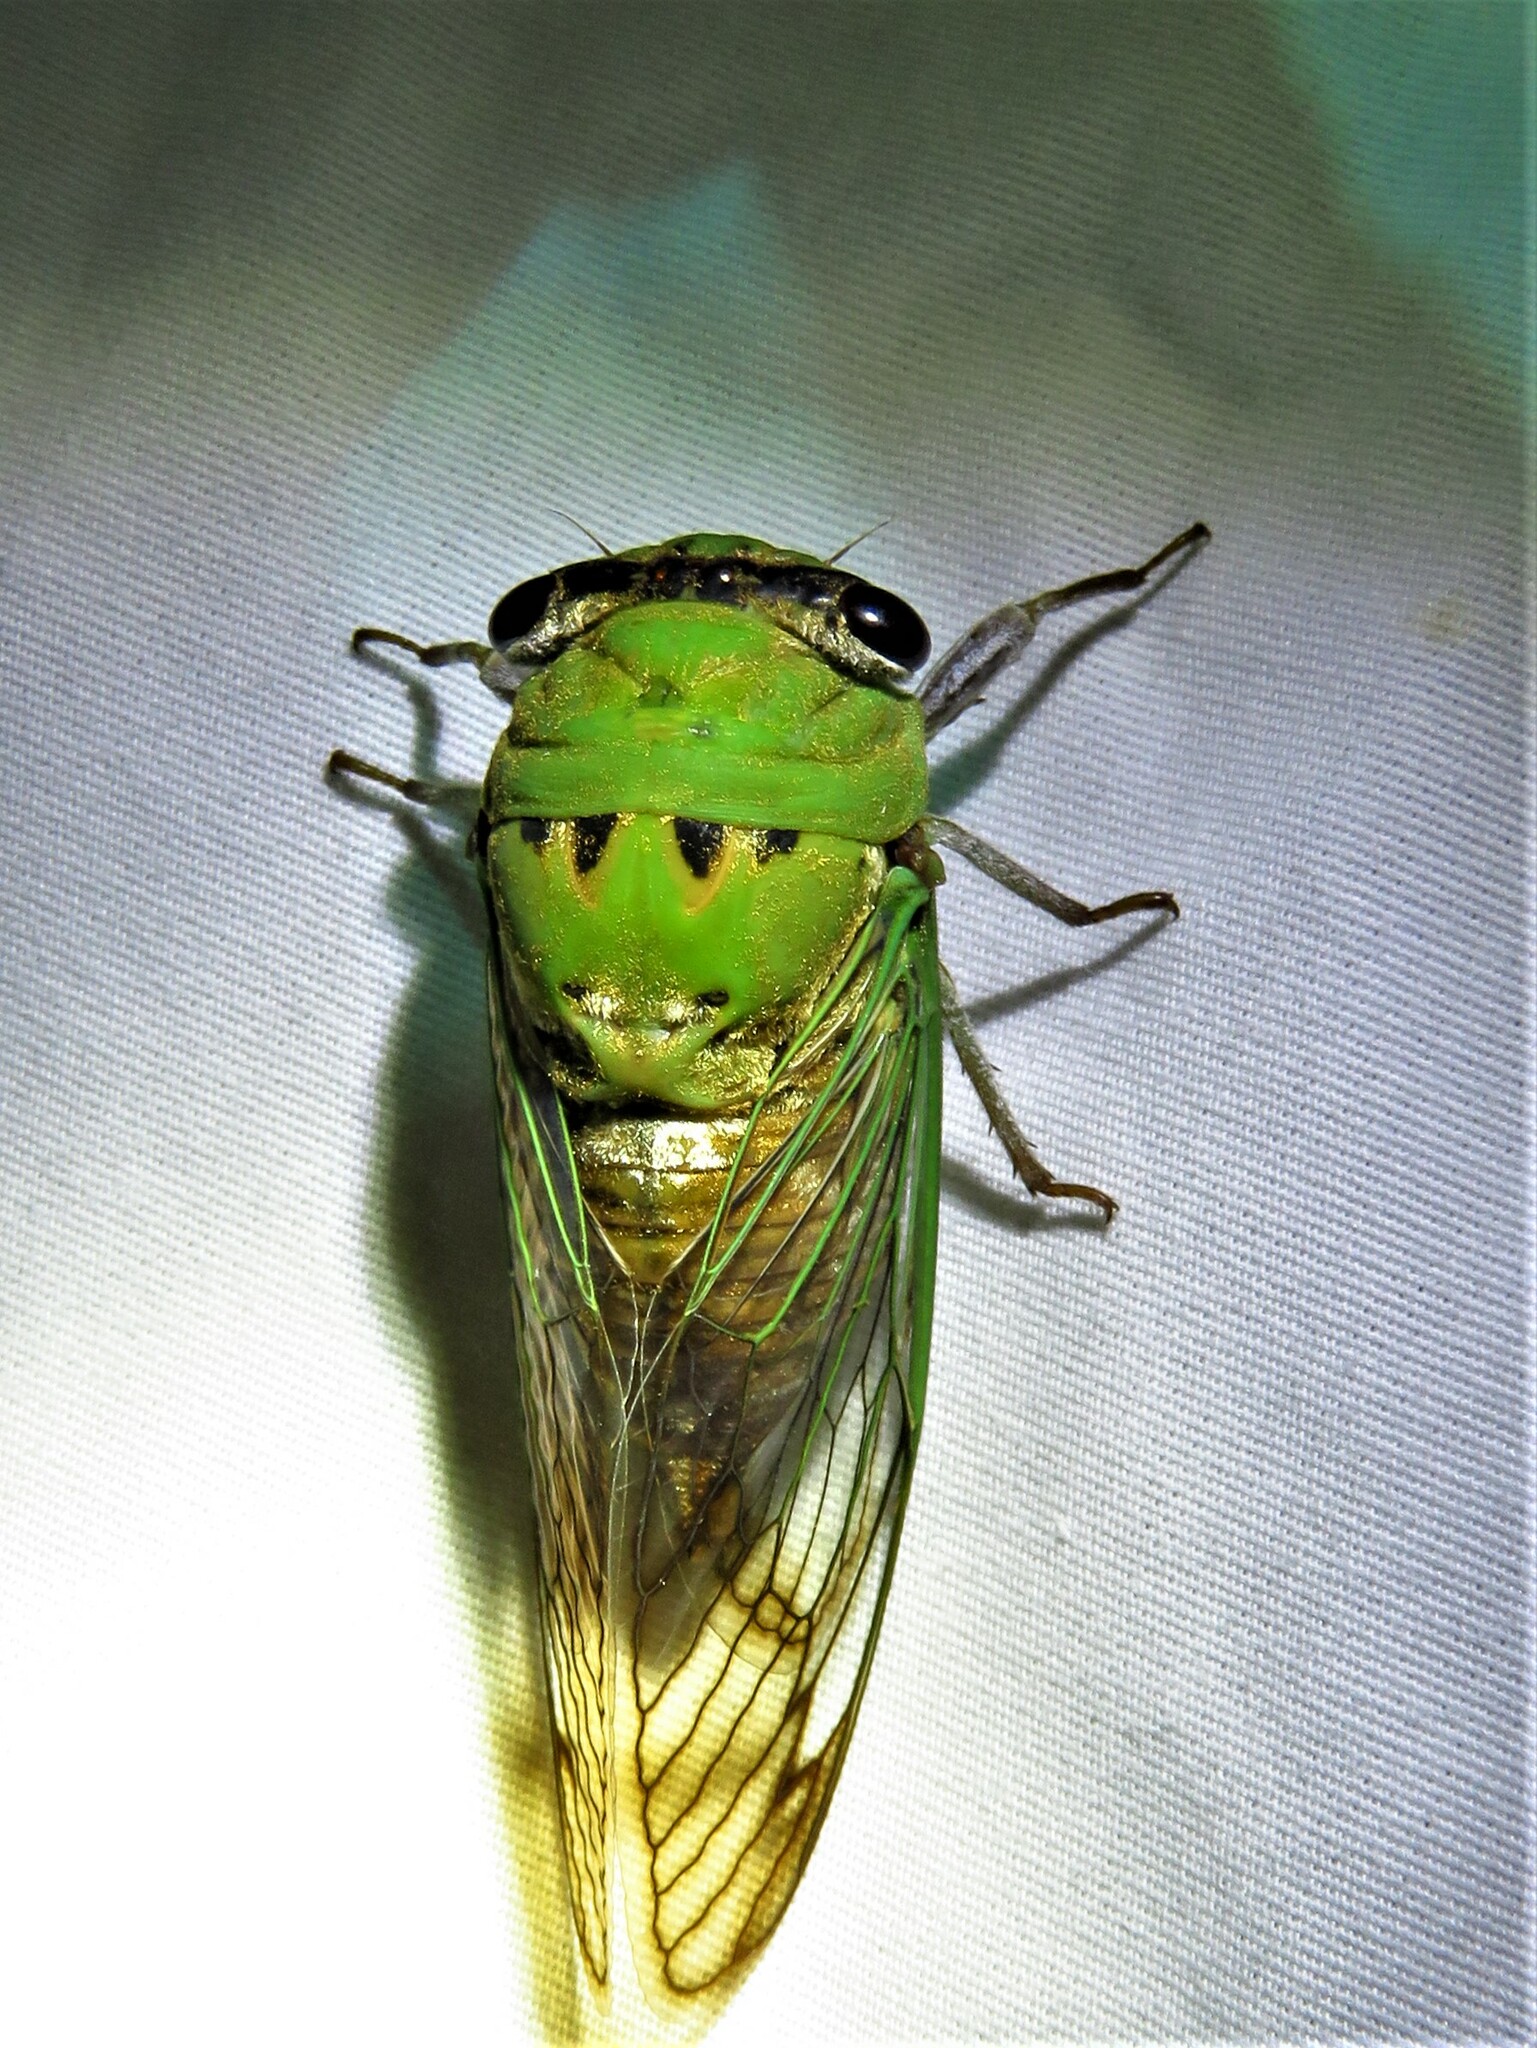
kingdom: Animalia
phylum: Arthropoda
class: Insecta
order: Hemiptera
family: Cicadidae
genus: Neotibicen
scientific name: Neotibicen superbus
